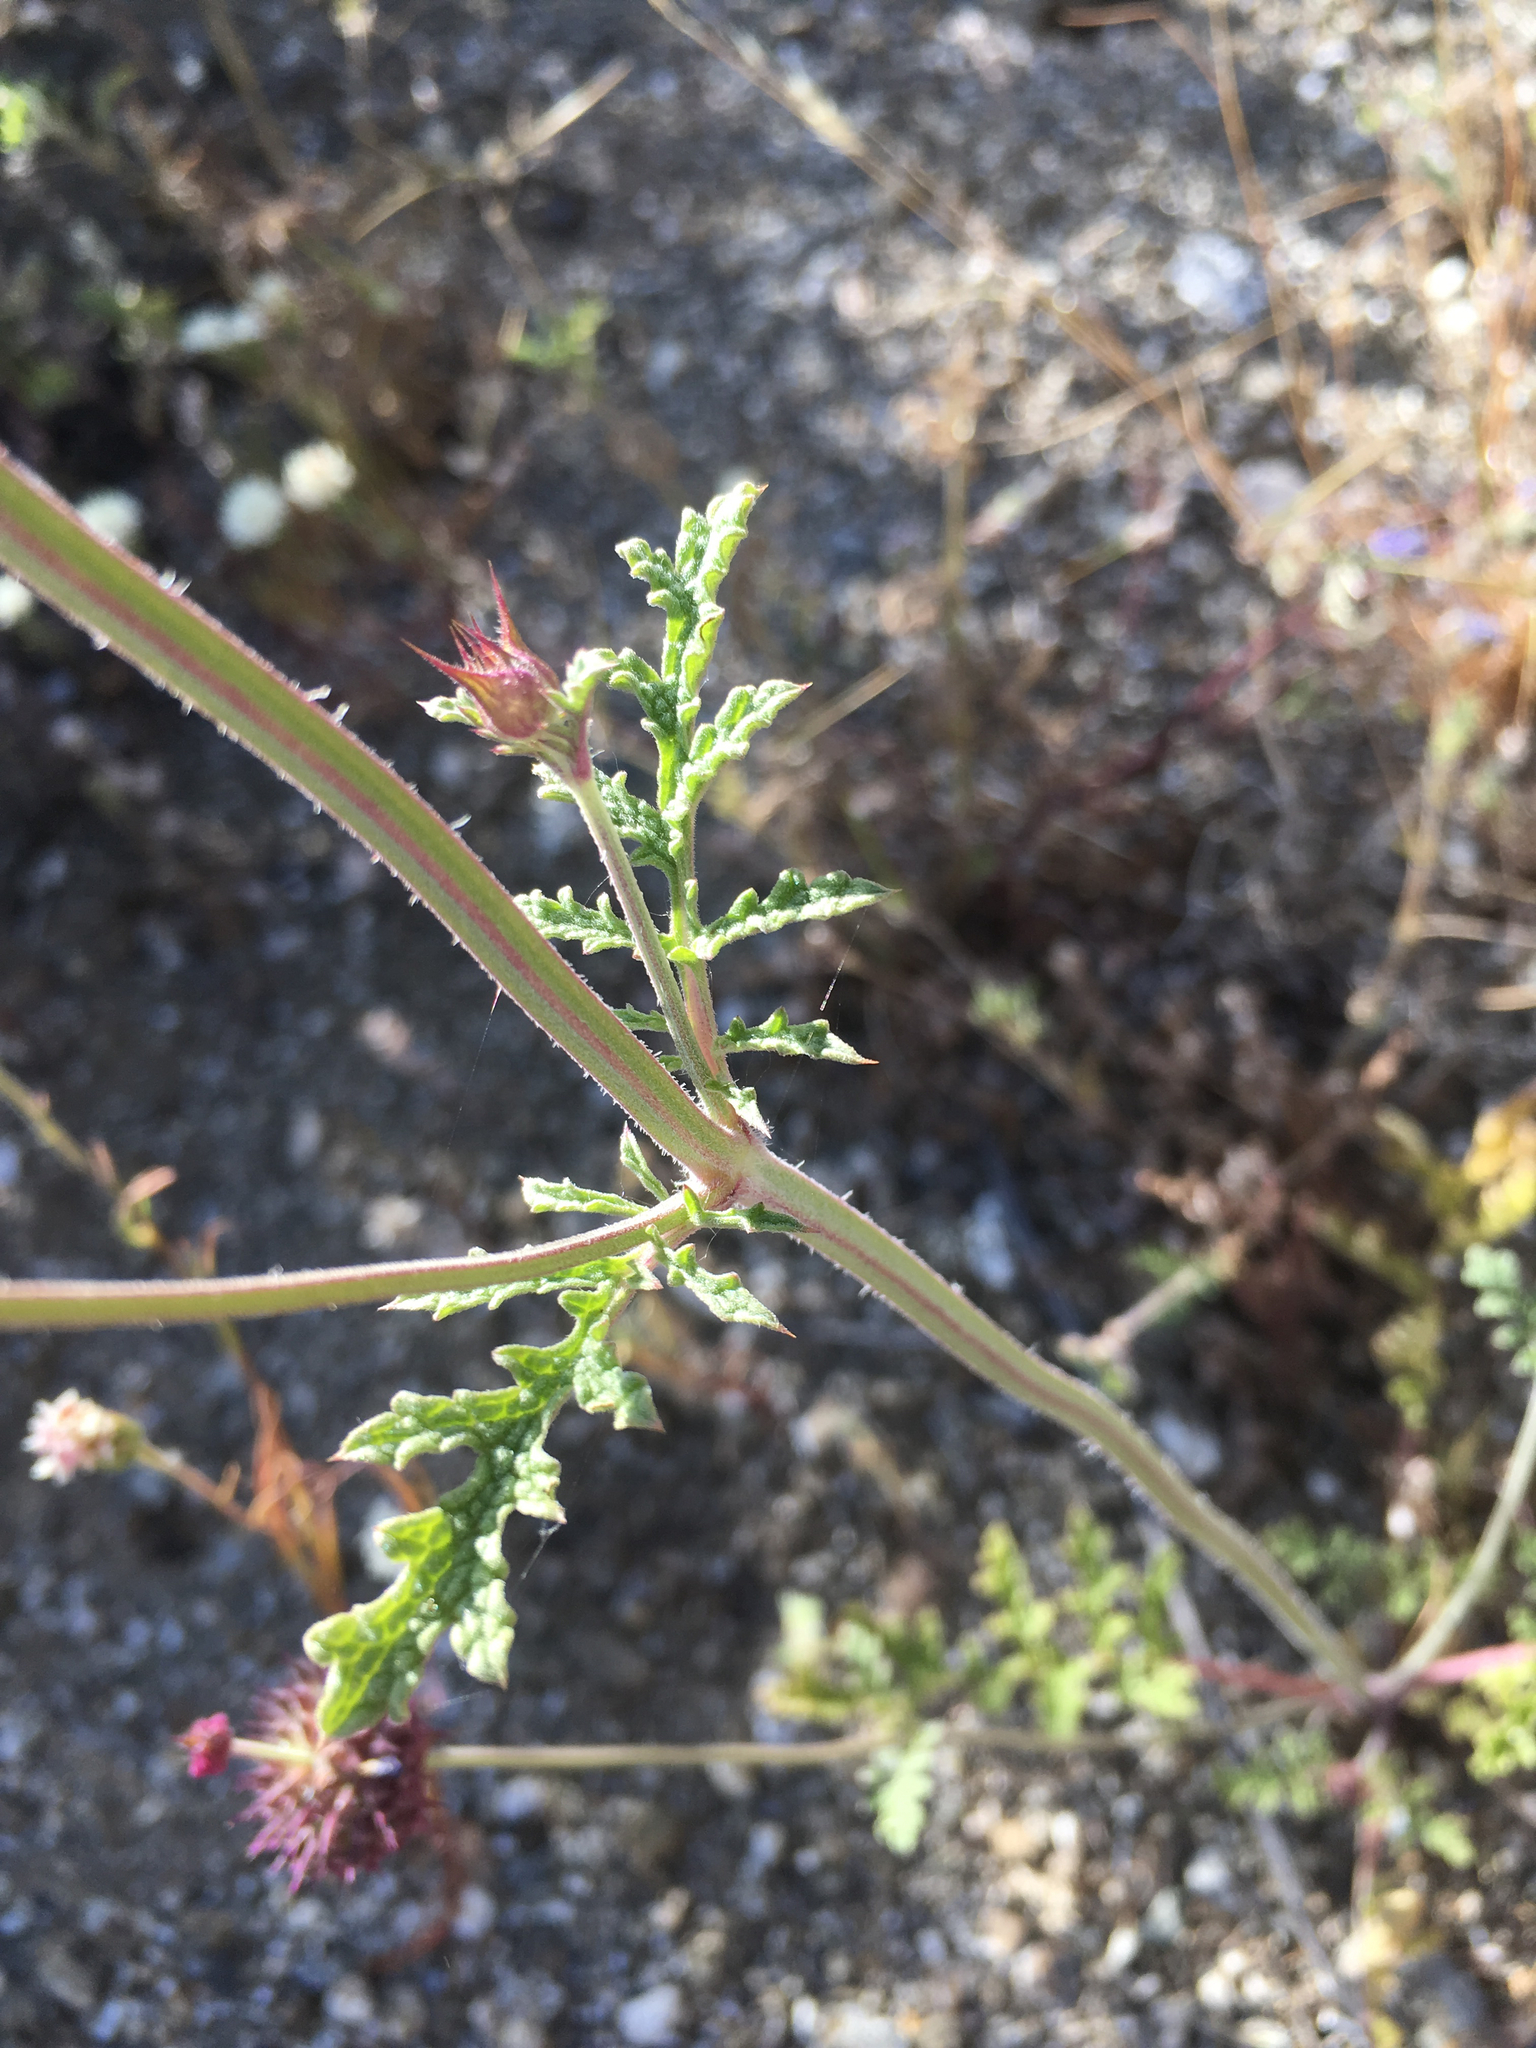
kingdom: Plantae
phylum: Tracheophyta
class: Magnoliopsida
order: Lamiales
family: Lamiaceae
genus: Salvia
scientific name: Salvia columbariae
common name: Chia
